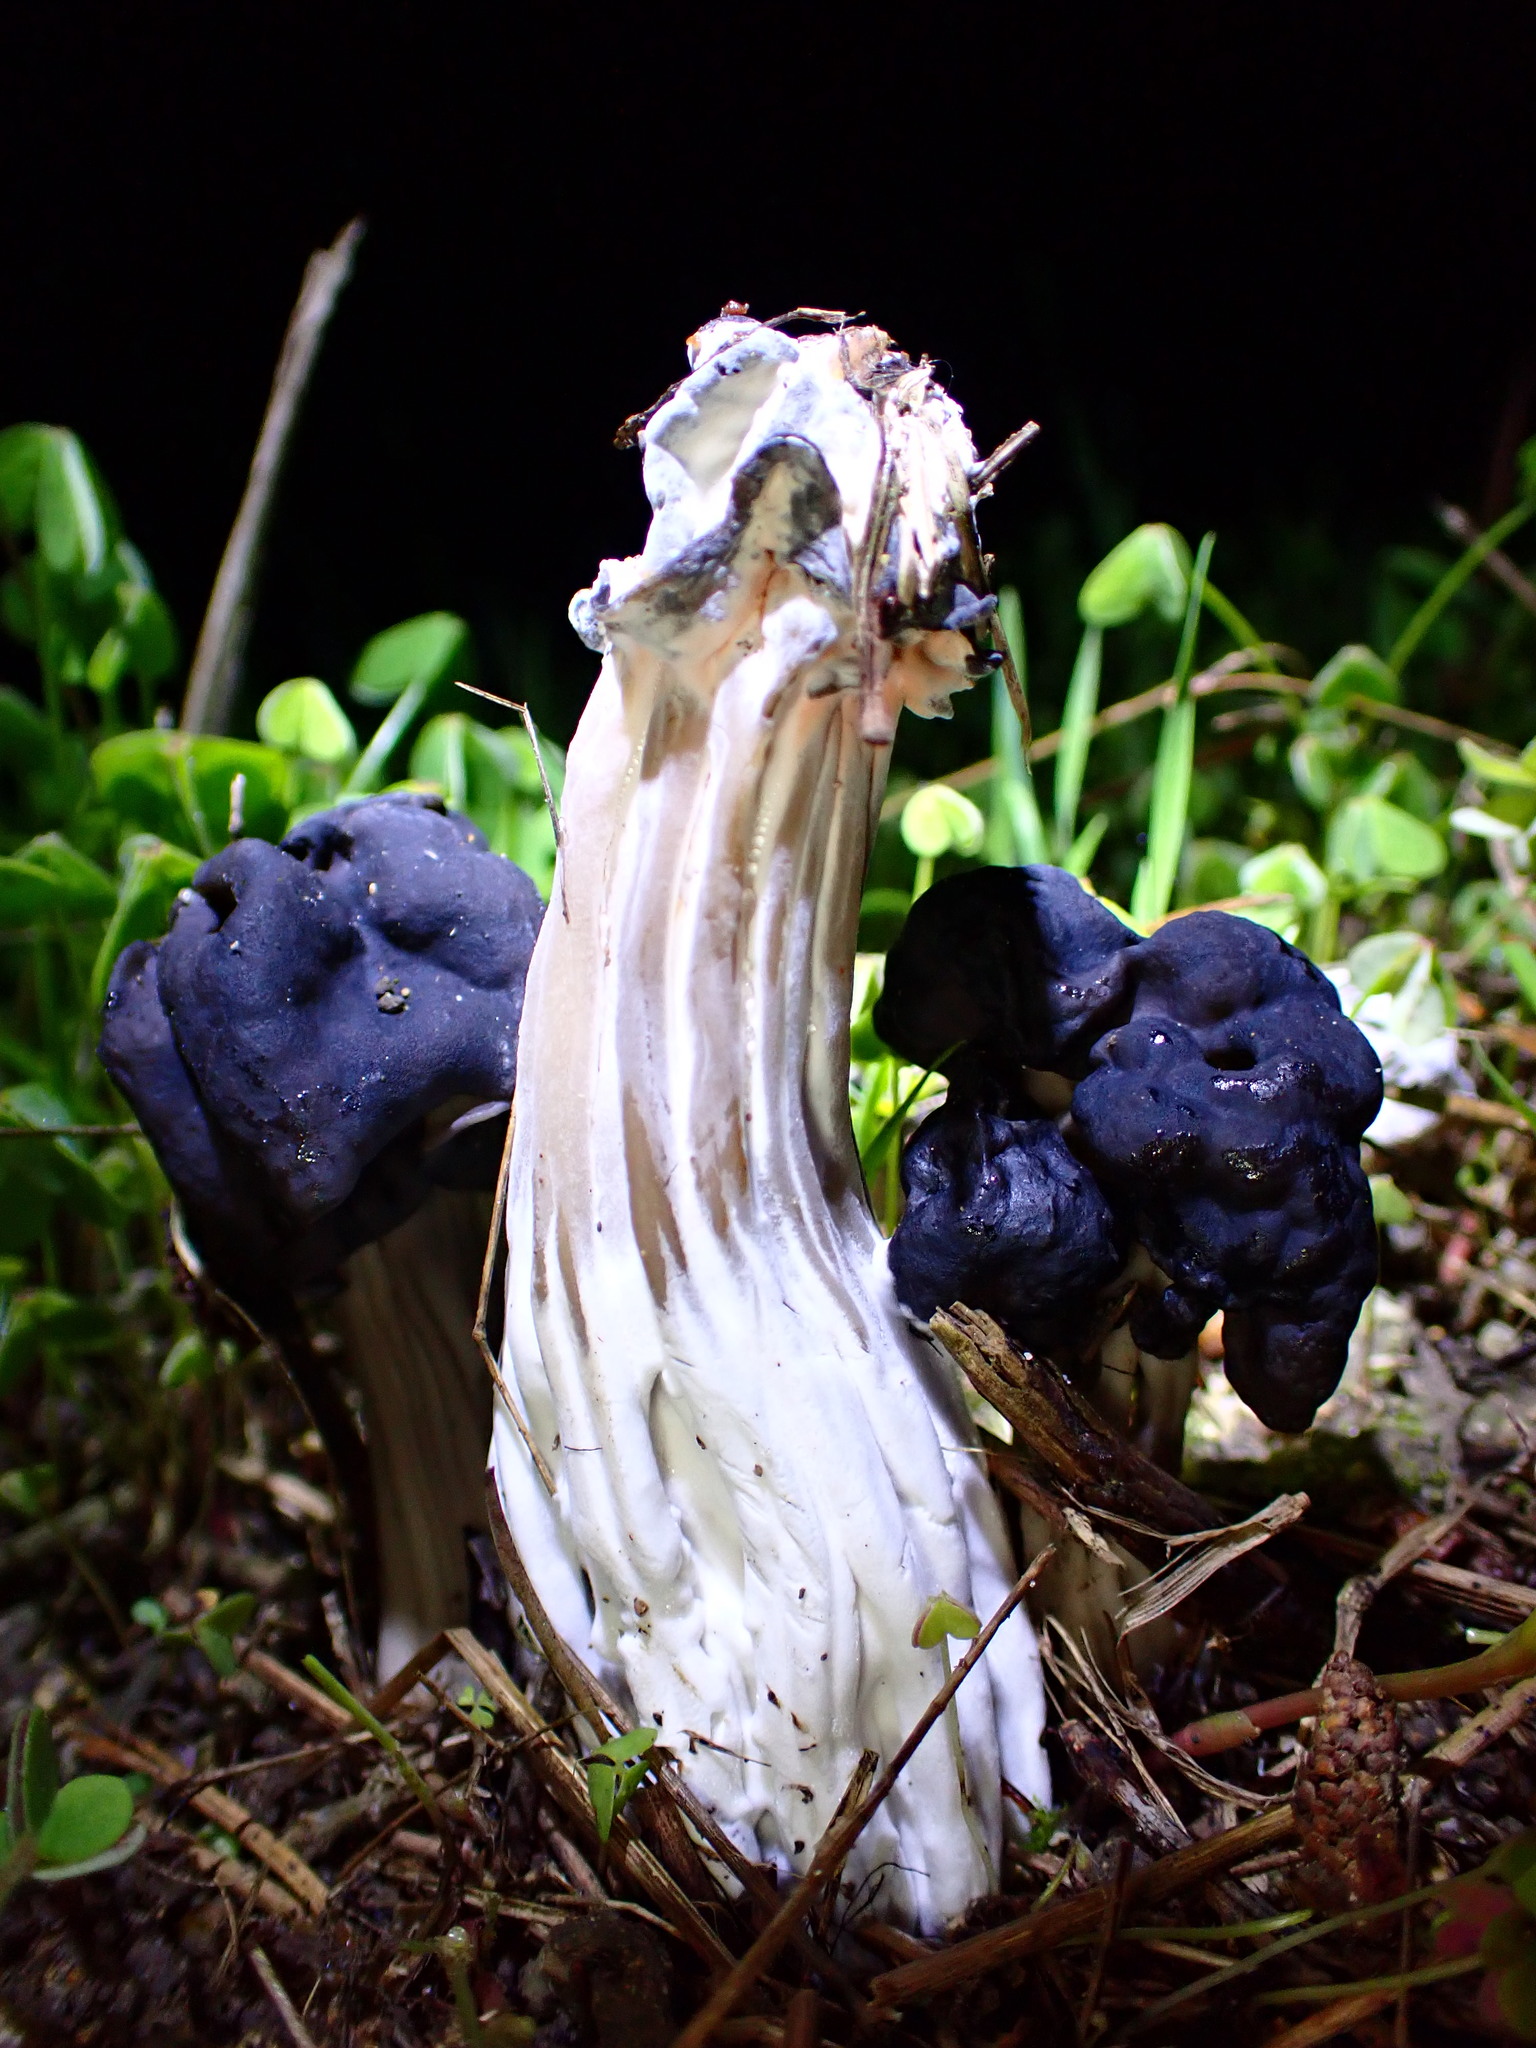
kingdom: Fungi
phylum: Ascomycota
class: Pezizomycetes
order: Pezizales
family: Helvellaceae
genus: Helvella
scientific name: Helvella vespertina
